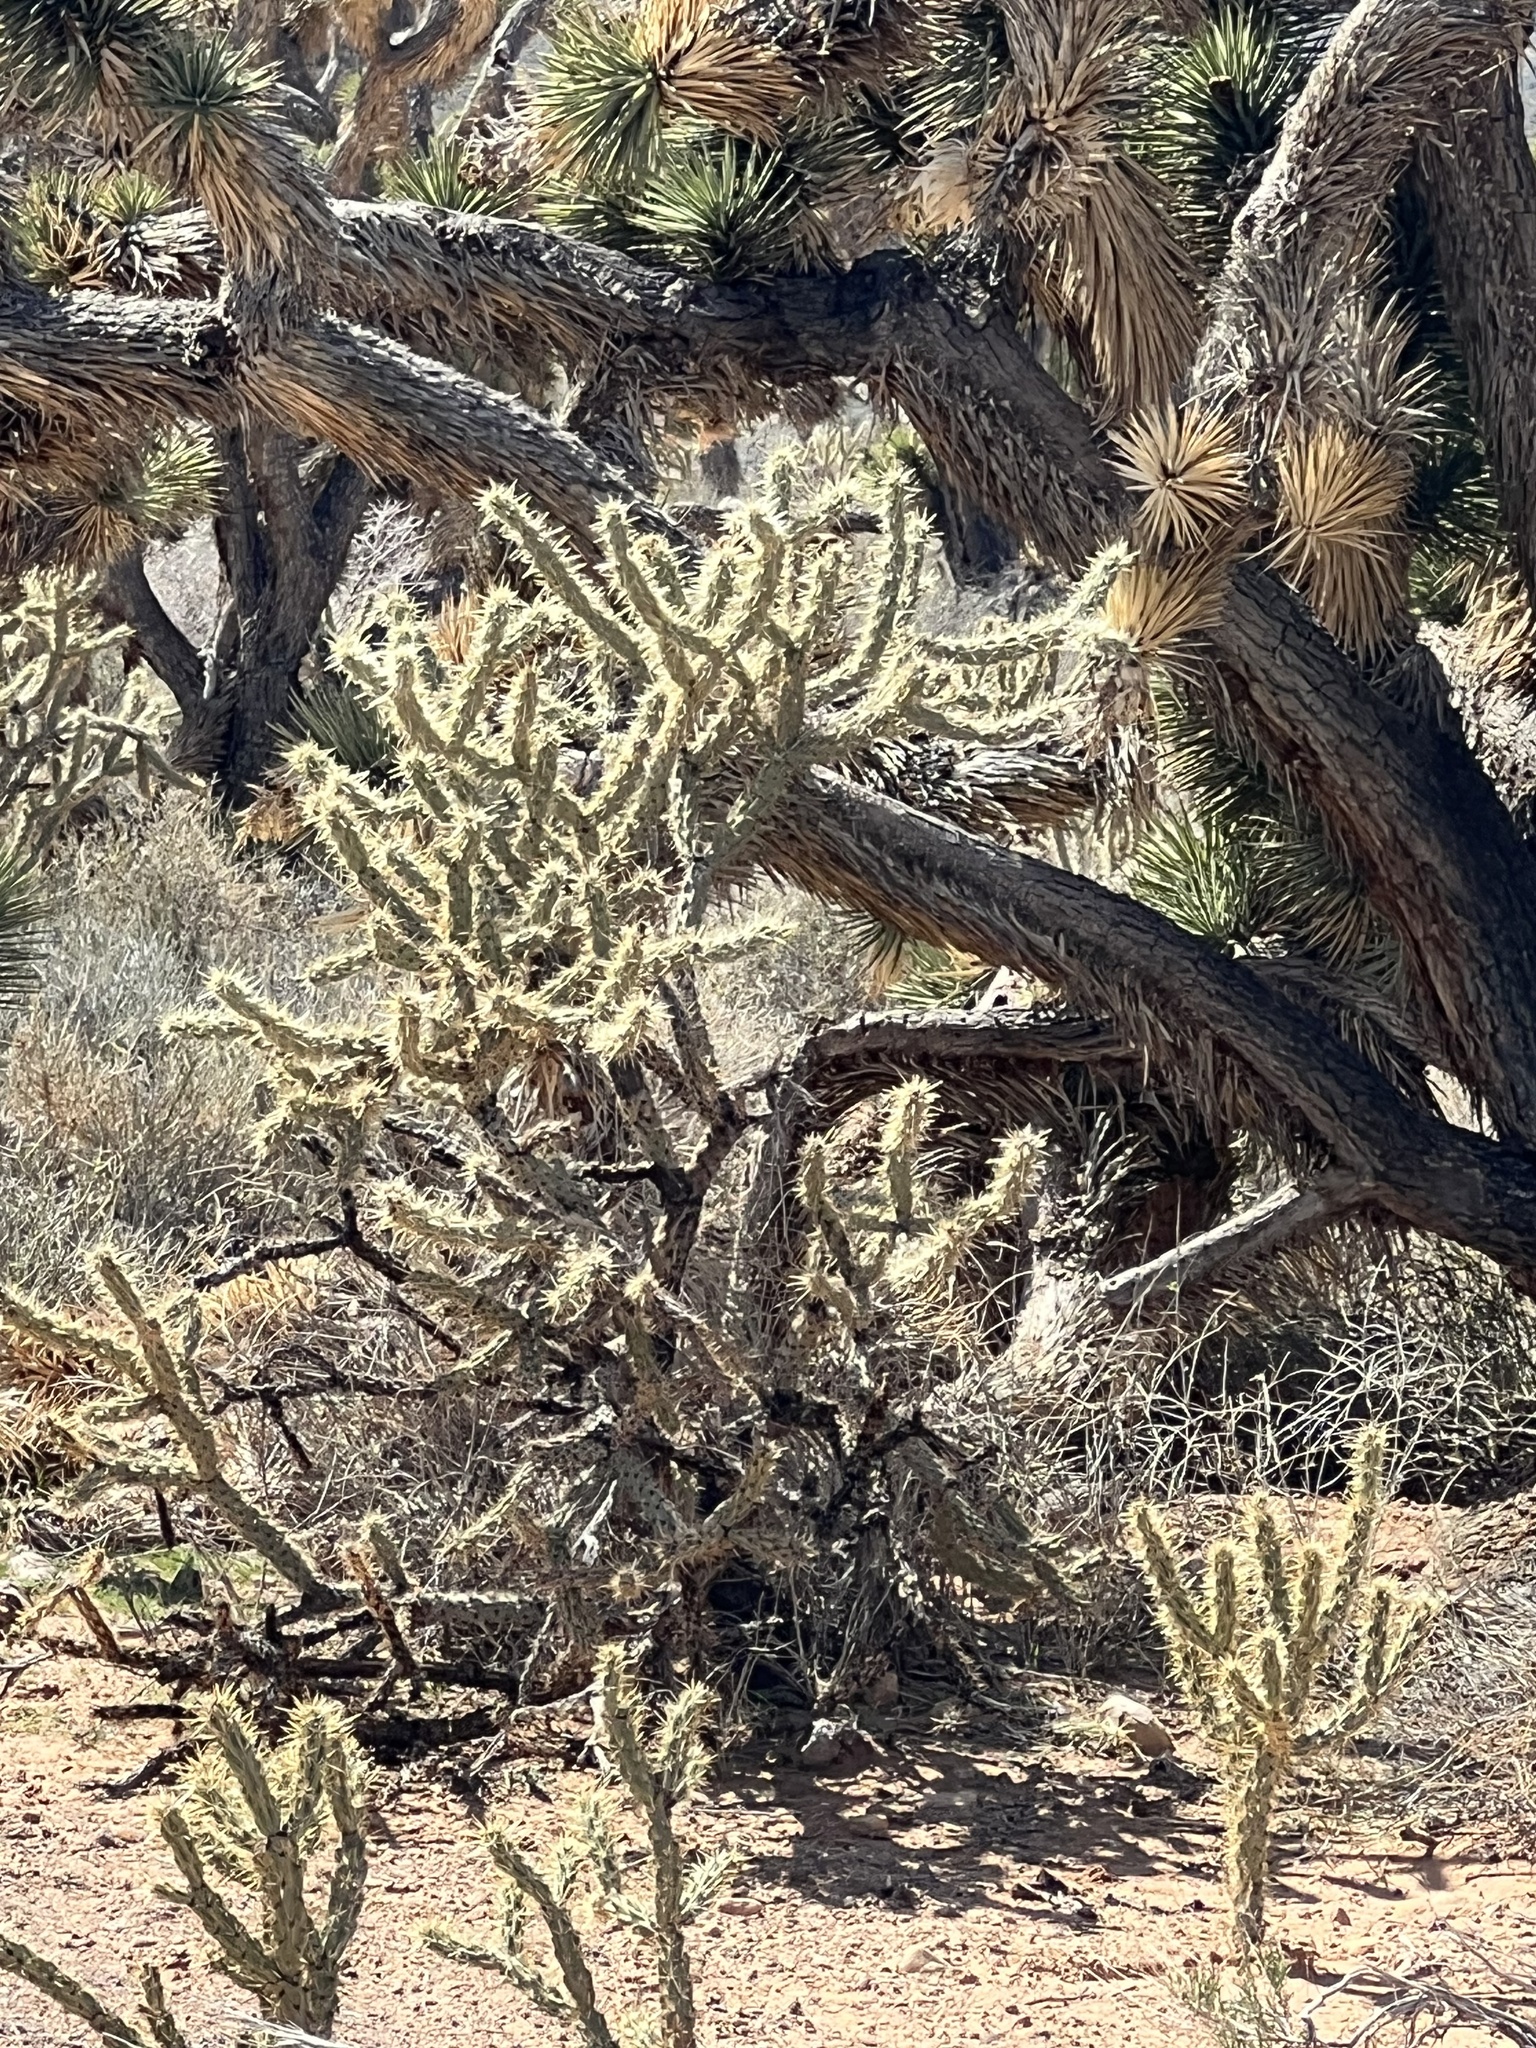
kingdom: Plantae
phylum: Tracheophyta
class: Magnoliopsida
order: Caryophyllales
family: Cactaceae
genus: Cylindropuntia
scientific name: Cylindropuntia acanthocarpa
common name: Buckhorn cholla
